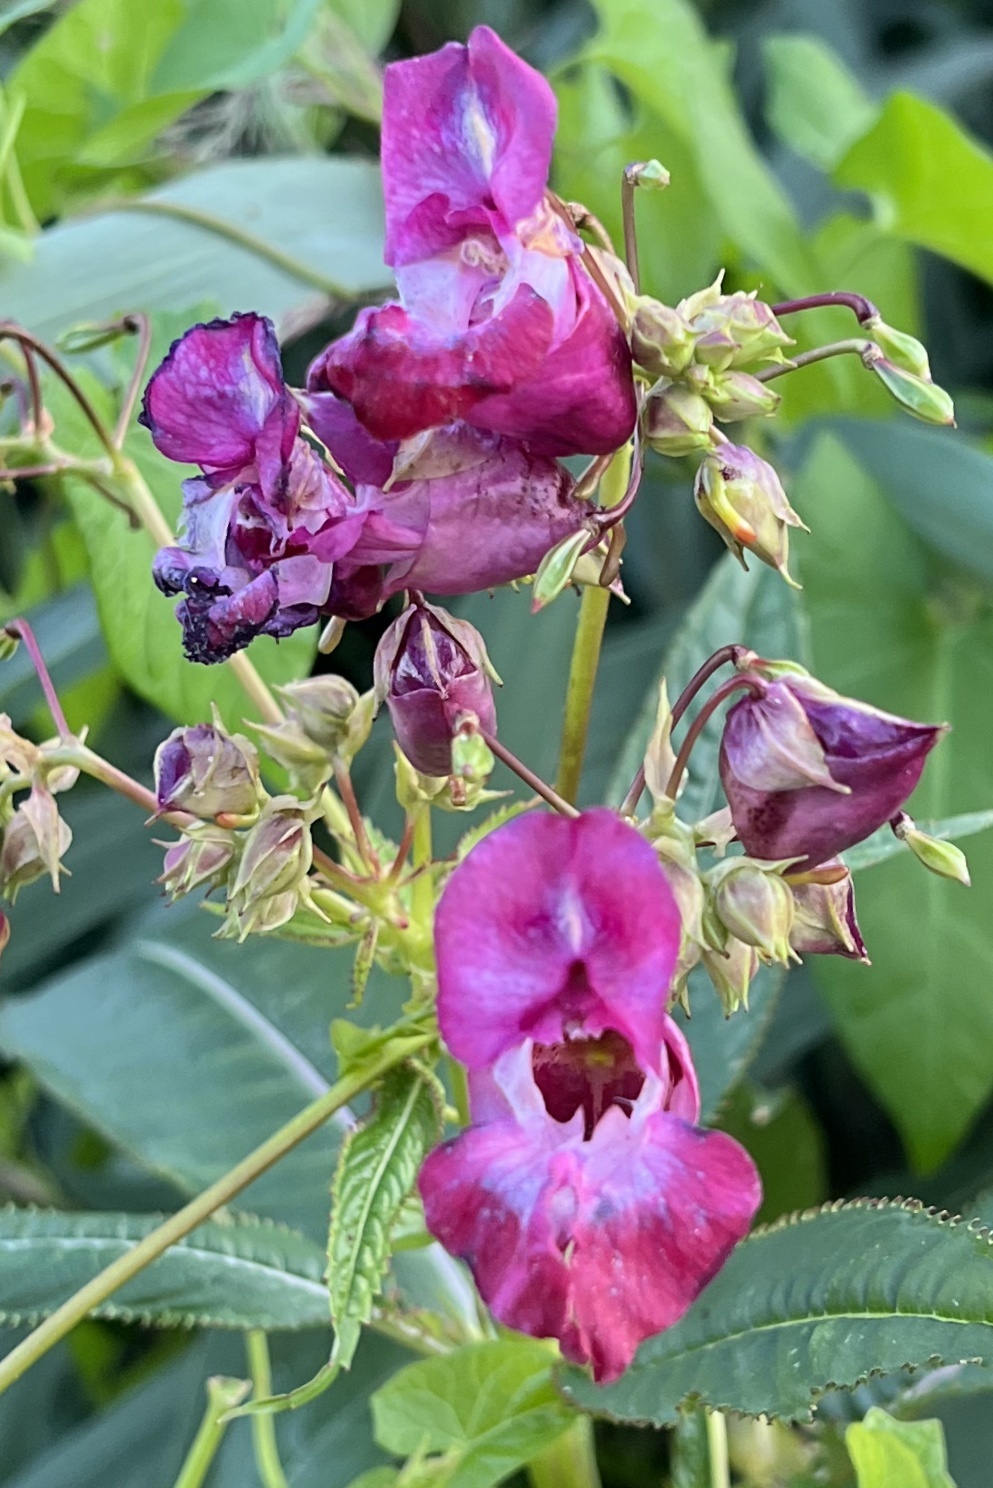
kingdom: Plantae
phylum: Tracheophyta
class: Magnoliopsida
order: Ericales
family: Balsaminaceae
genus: Impatiens
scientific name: Impatiens glandulifera
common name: Himalayan balsam
